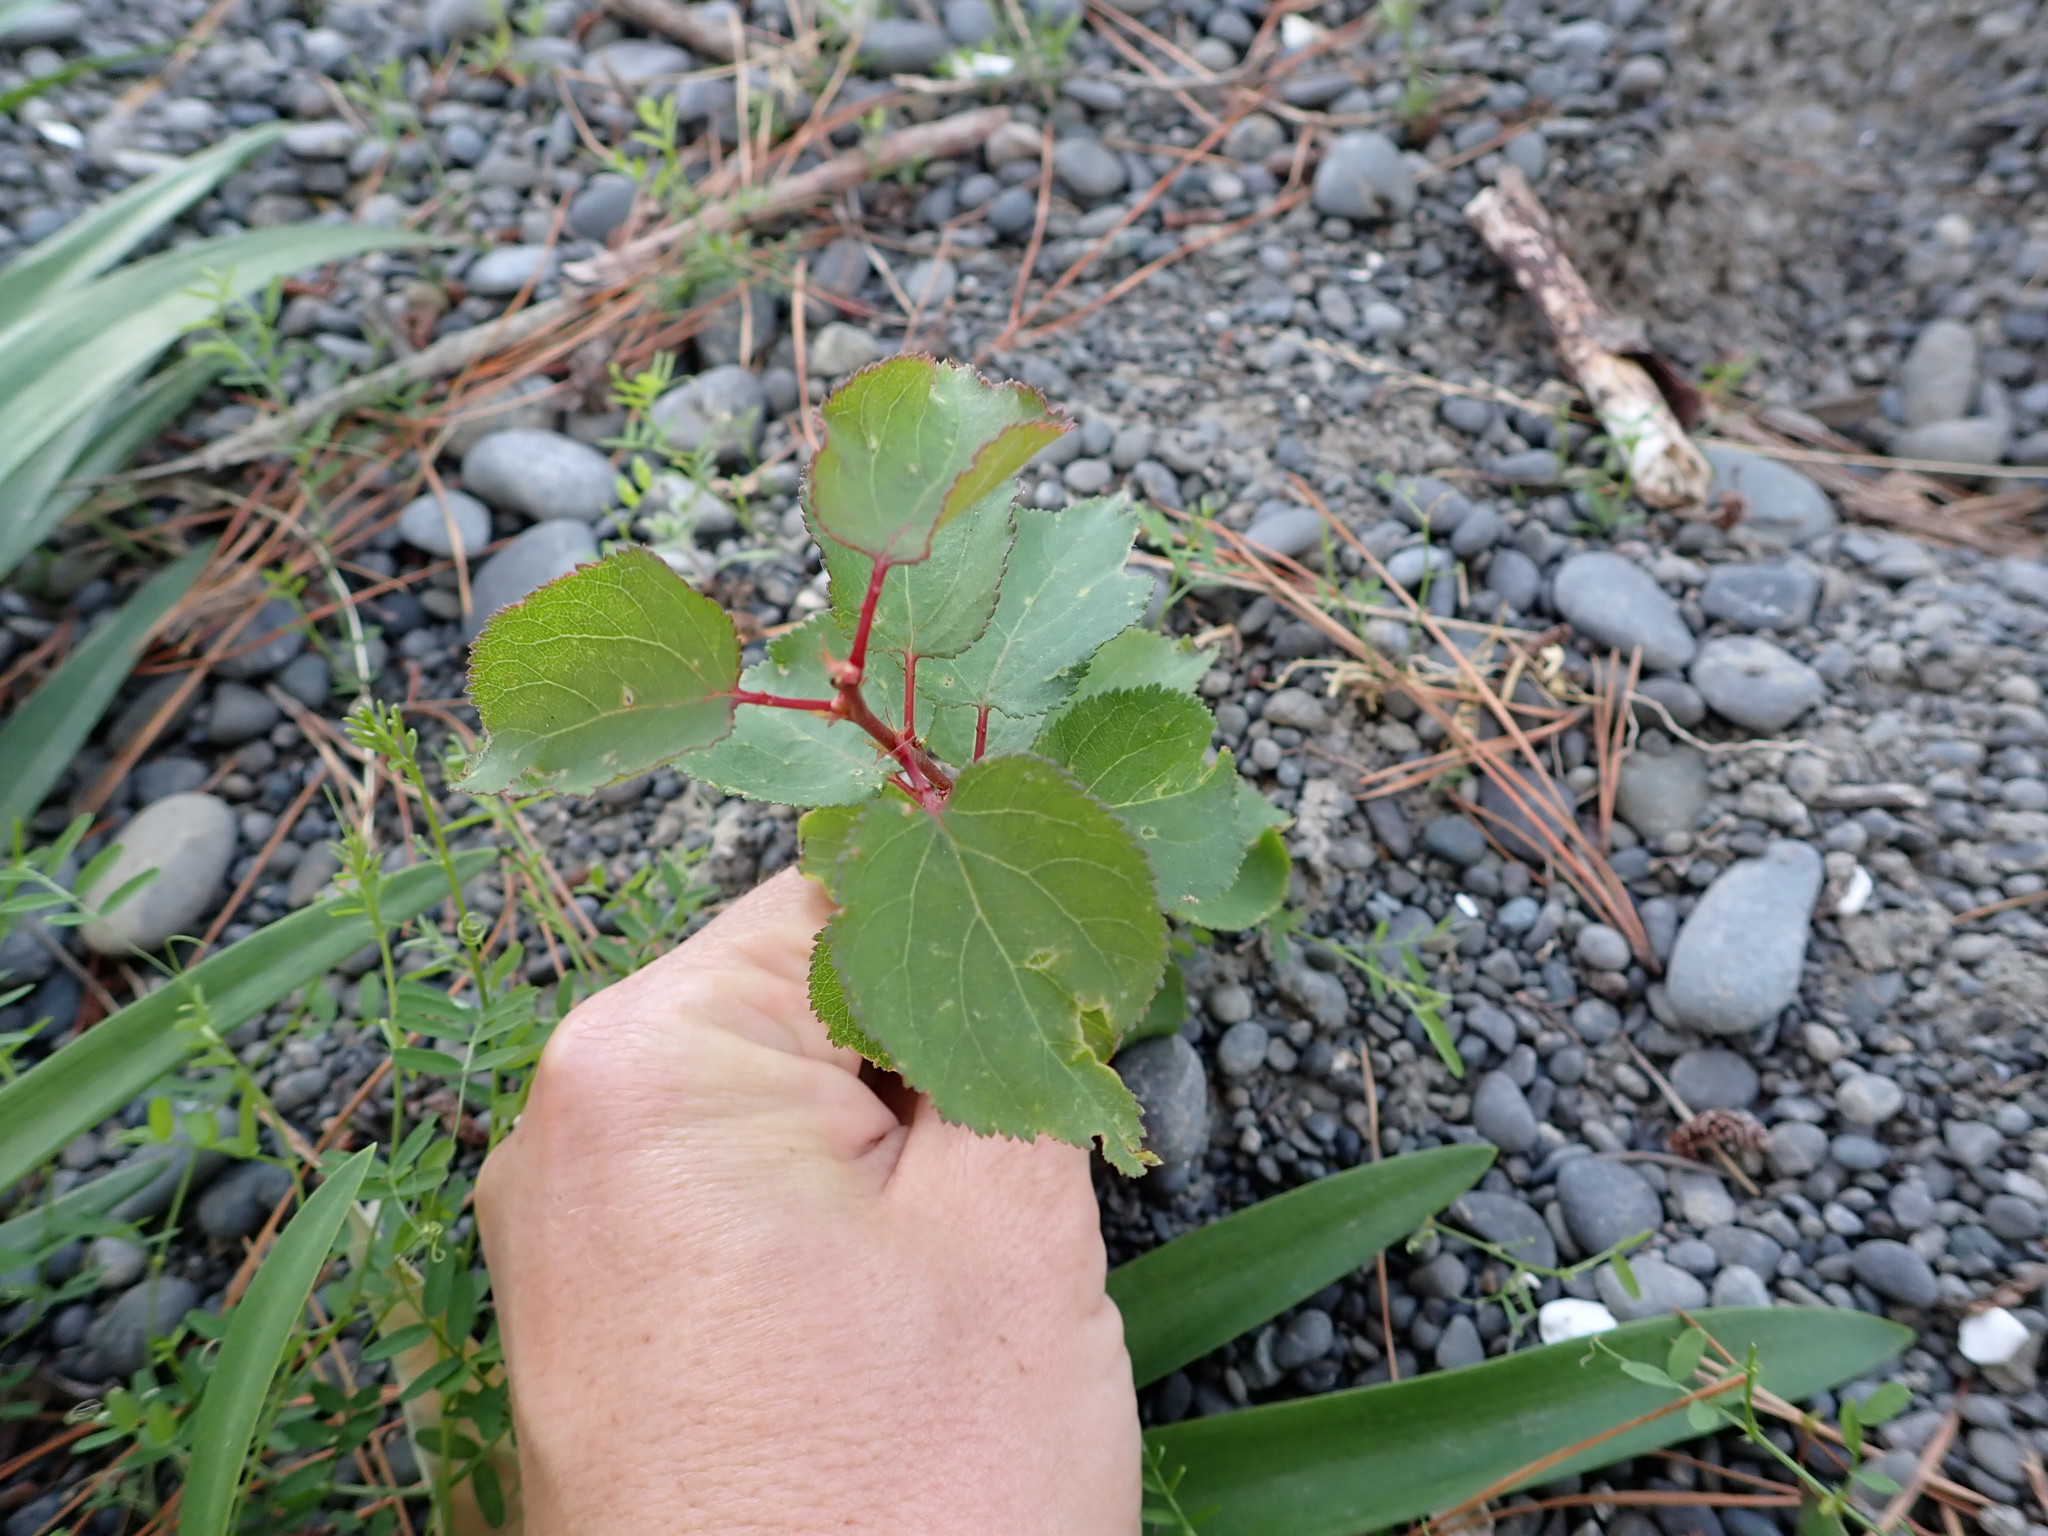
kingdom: Plantae
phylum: Tracheophyta
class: Magnoliopsida
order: Rosales
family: Rosaceae
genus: Prunus
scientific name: Prunus armeniaca
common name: Apricot
